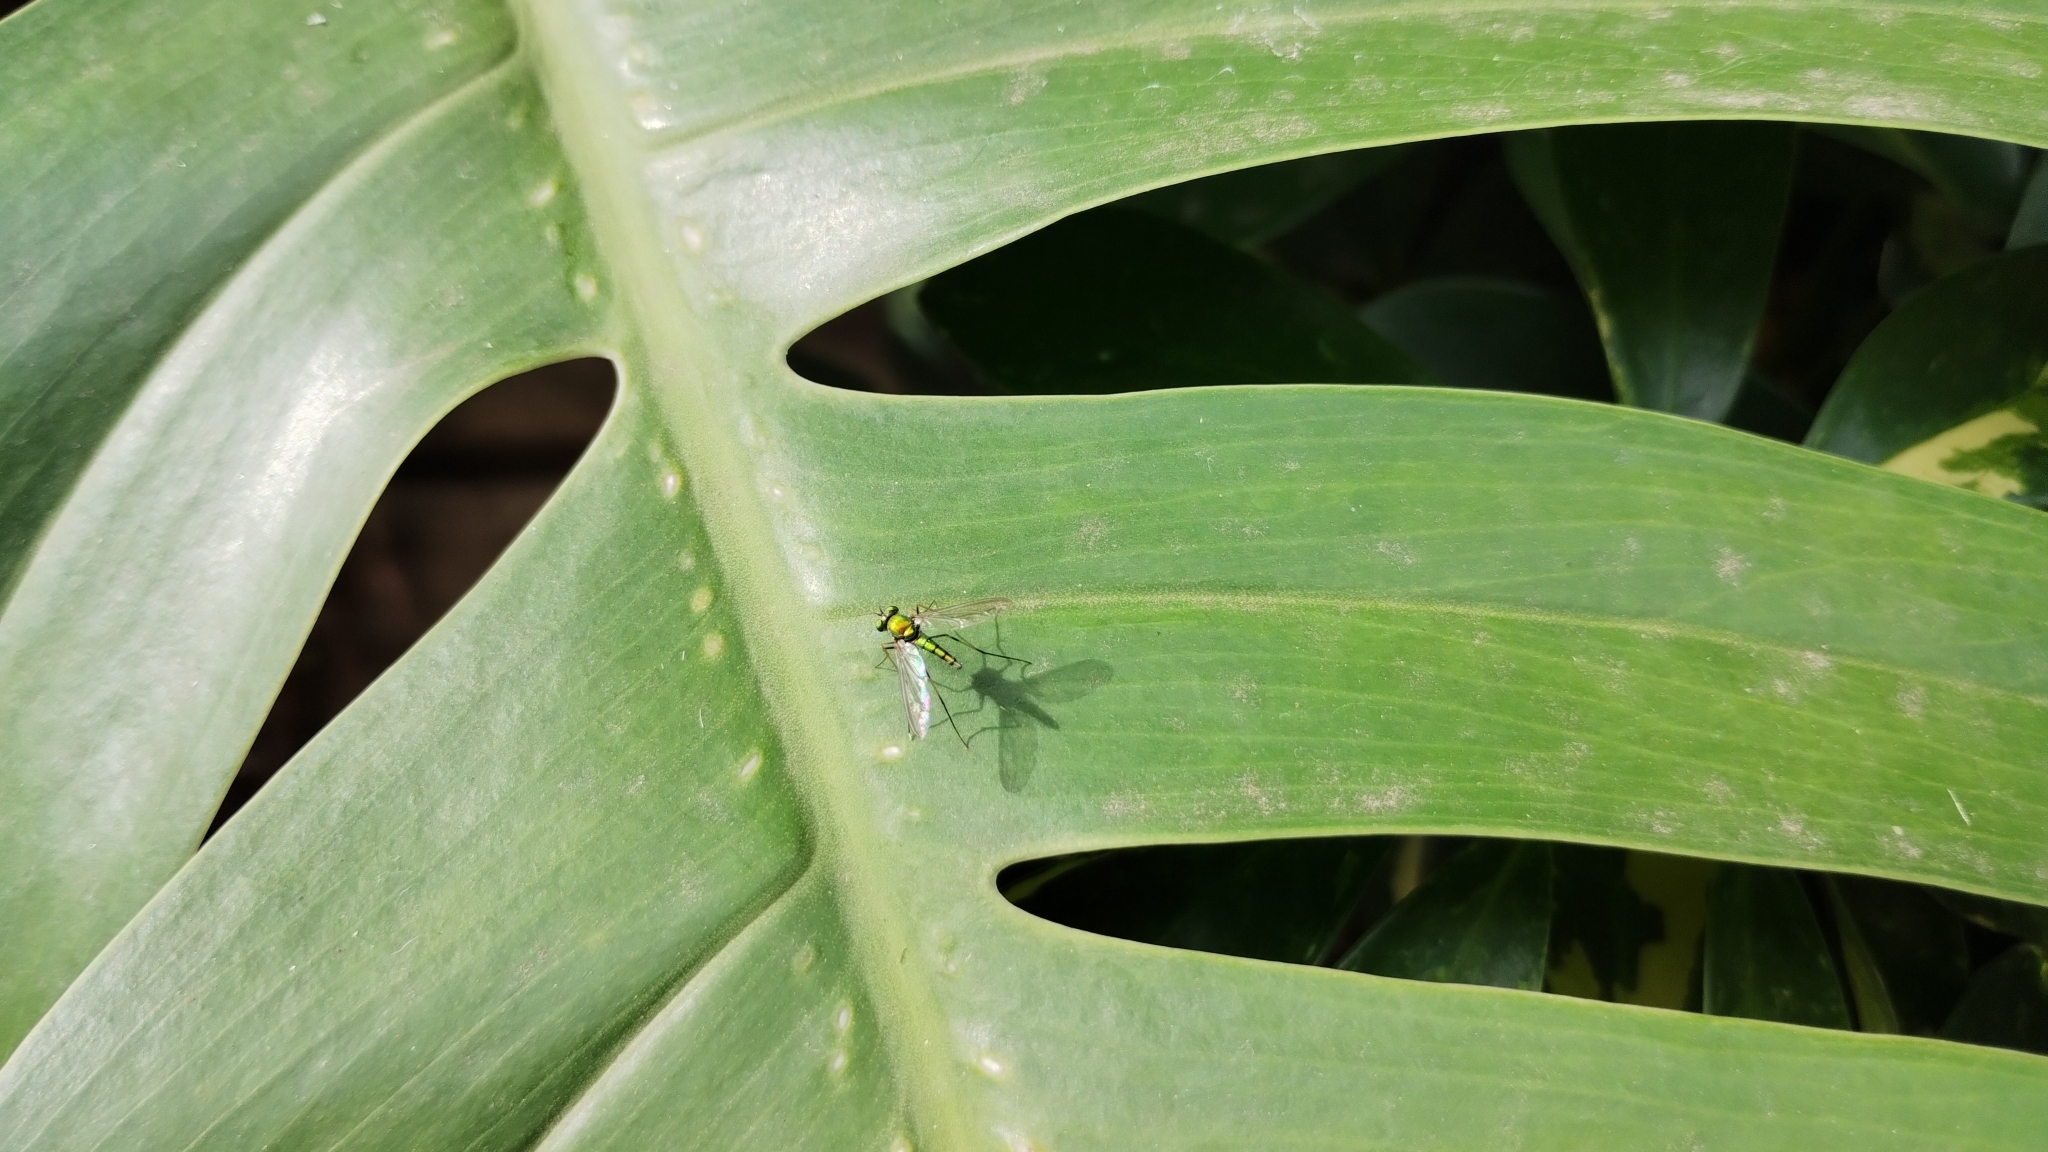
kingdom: Animalia
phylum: Arthropoda
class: Insecta
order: Diptera
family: Dolichopodidae
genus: Chrysosoma
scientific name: Chrysosoma leucopogon
